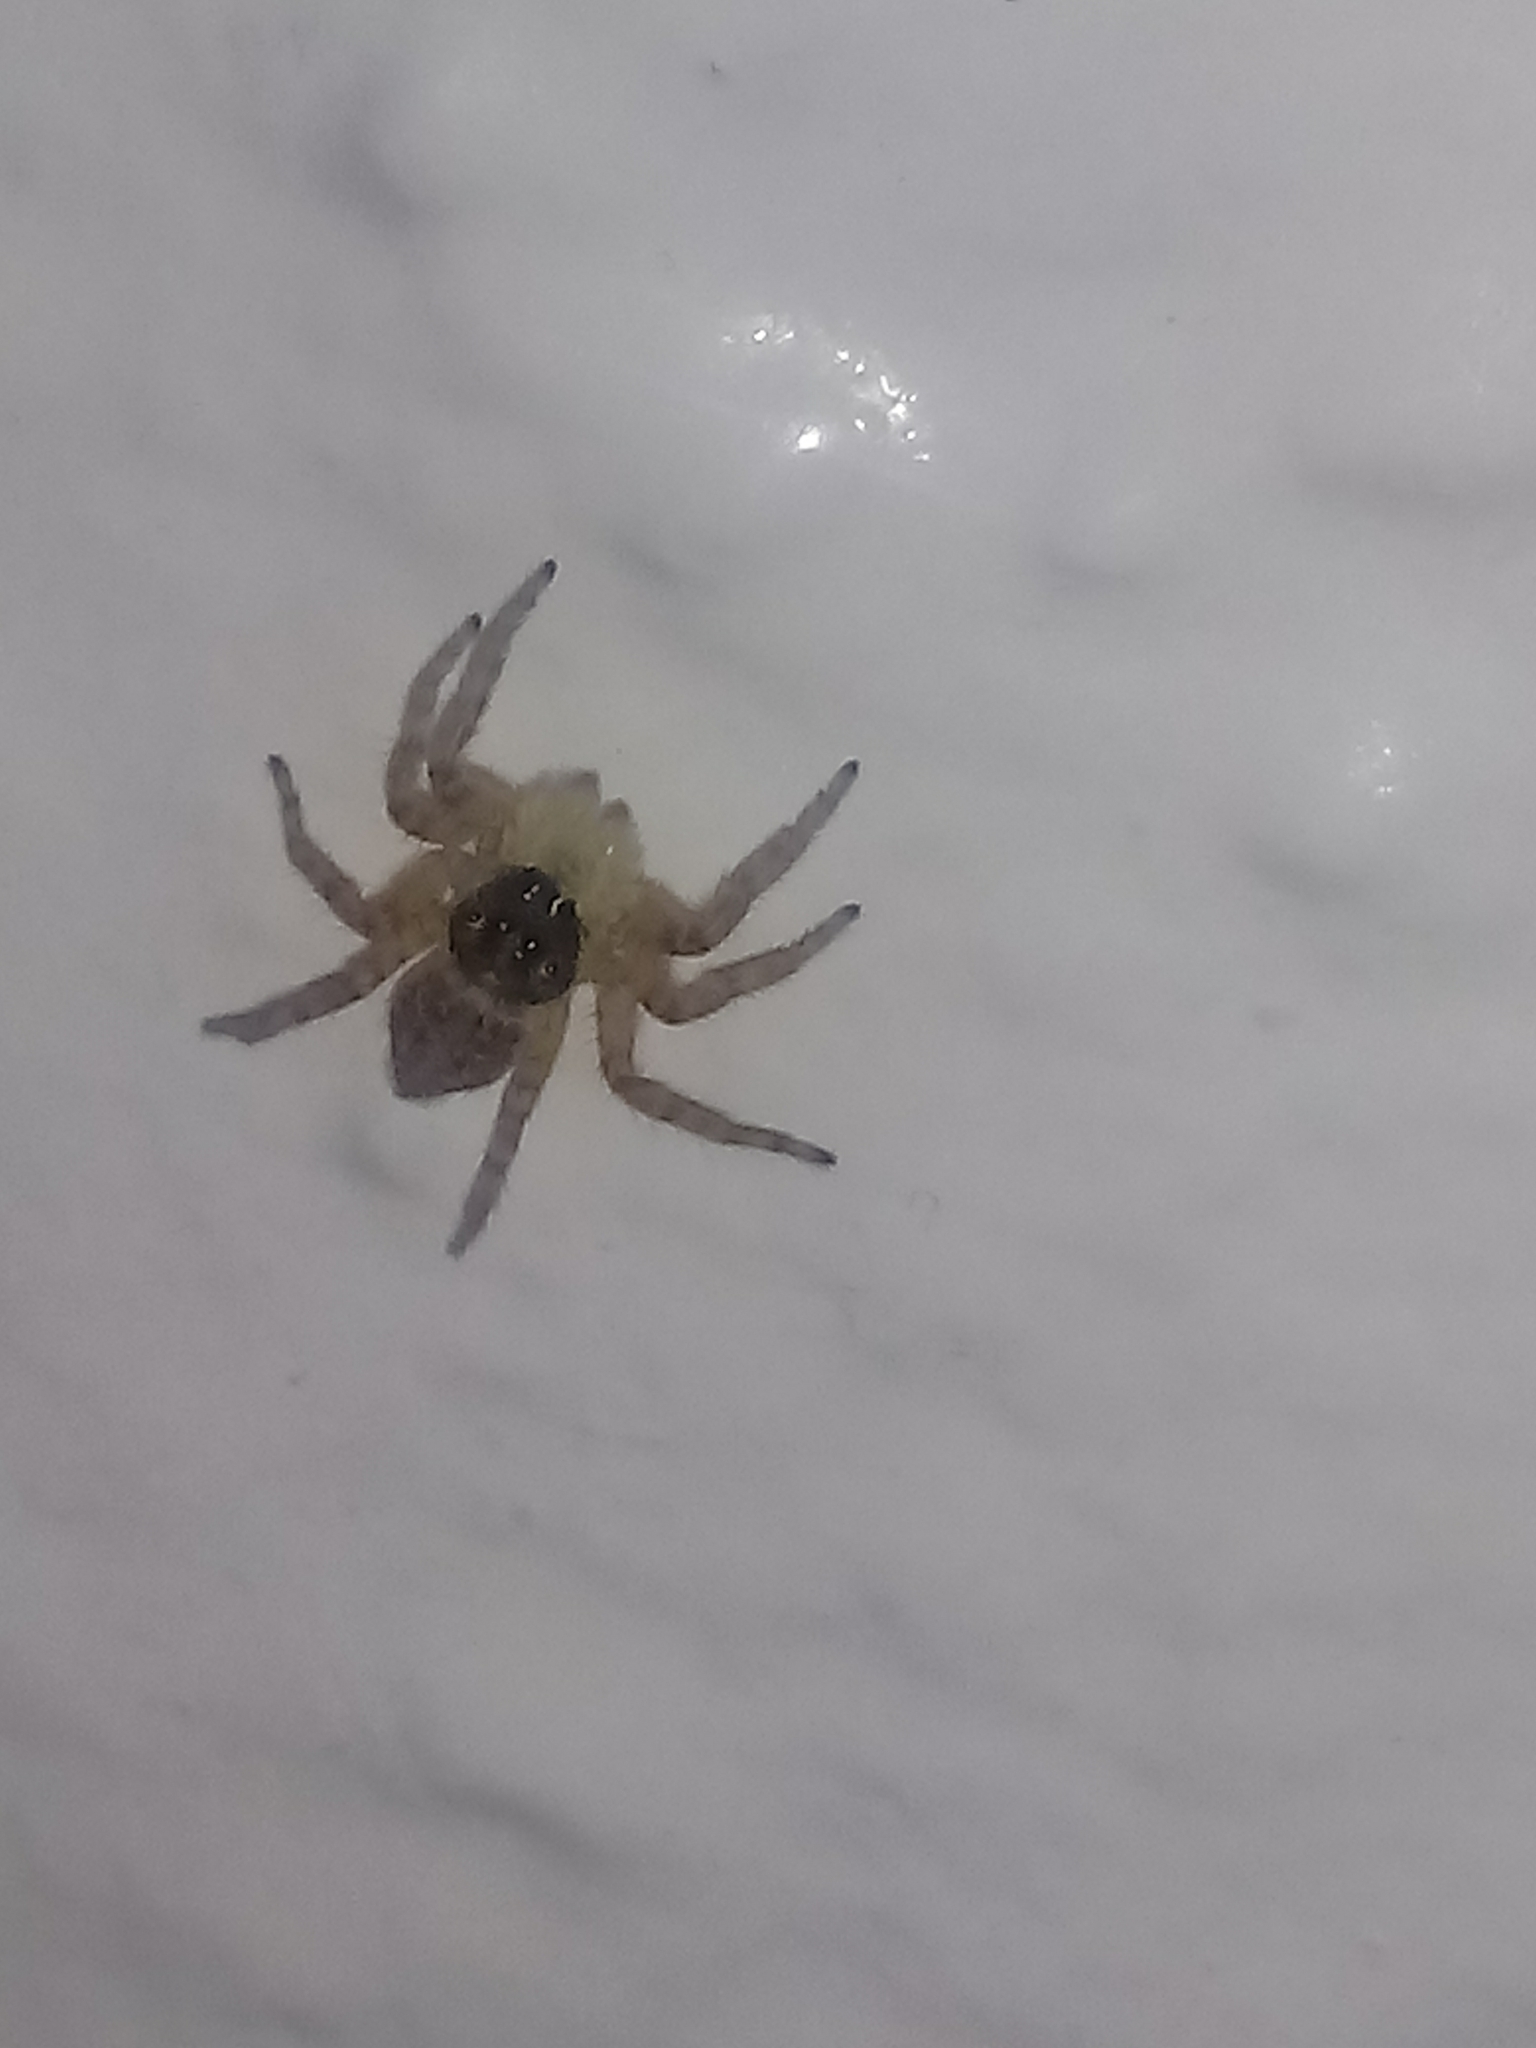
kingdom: Animalia
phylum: Arthropoda
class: Arachnida
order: Araneae
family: Salticidae
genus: Menemerus
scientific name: Menemerus semilimbatus
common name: Jumping spider
